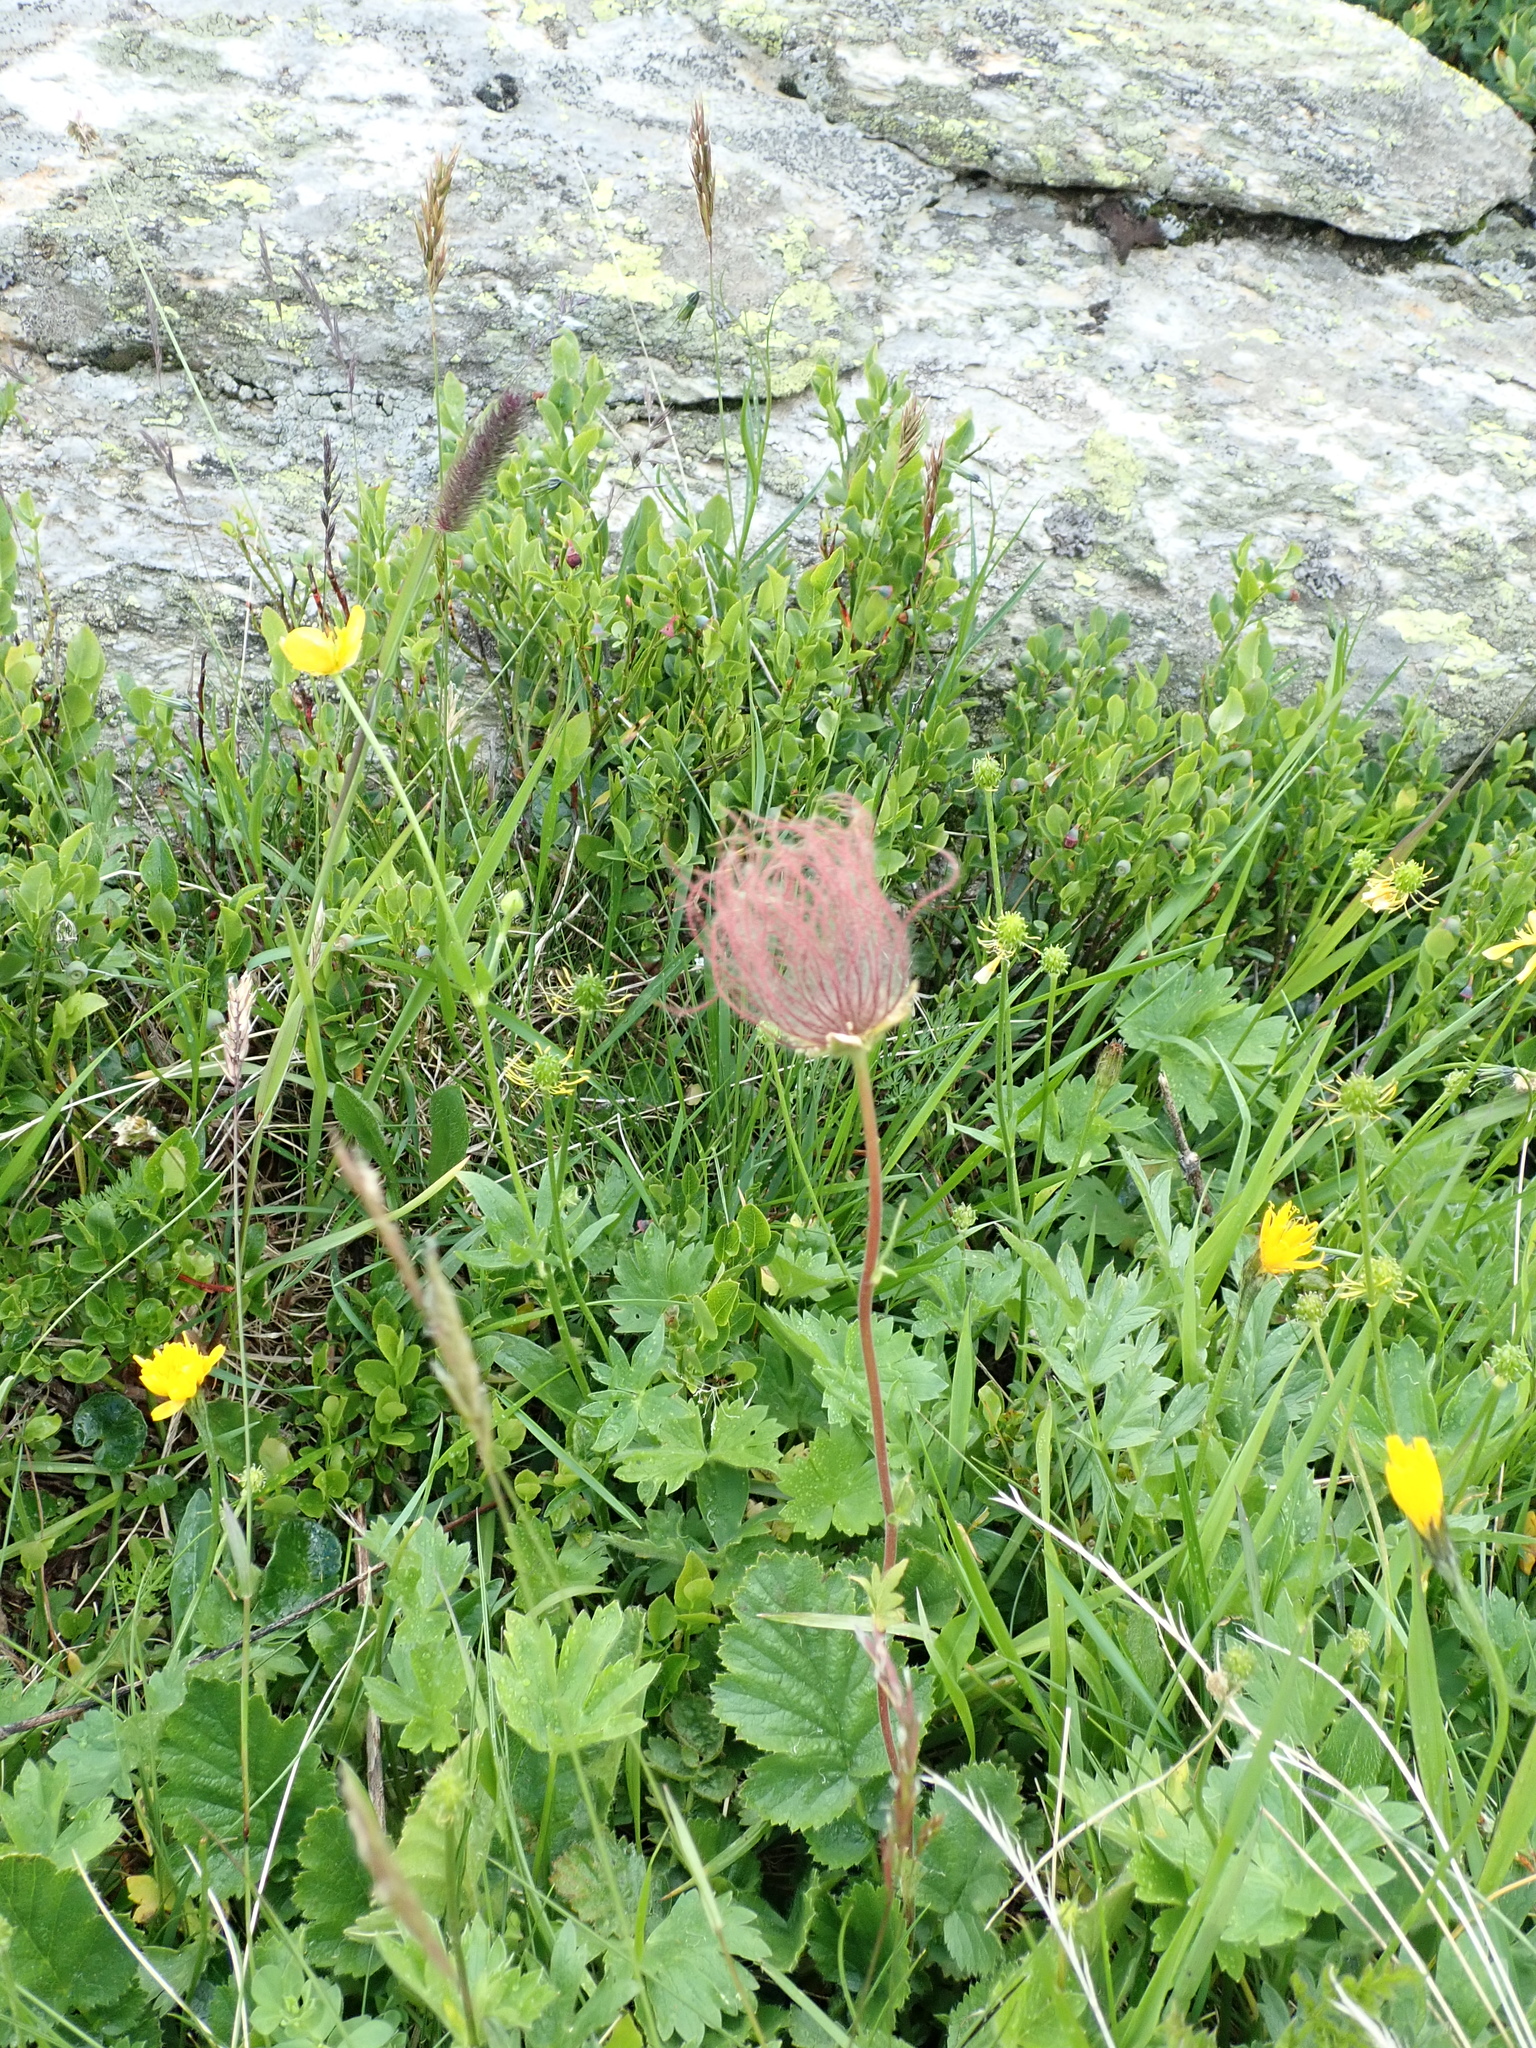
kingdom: Plantae
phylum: Tracheophyta
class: Magnoliopsida
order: Rosales
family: Rosaceae
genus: Geum
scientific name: Geum montanum
